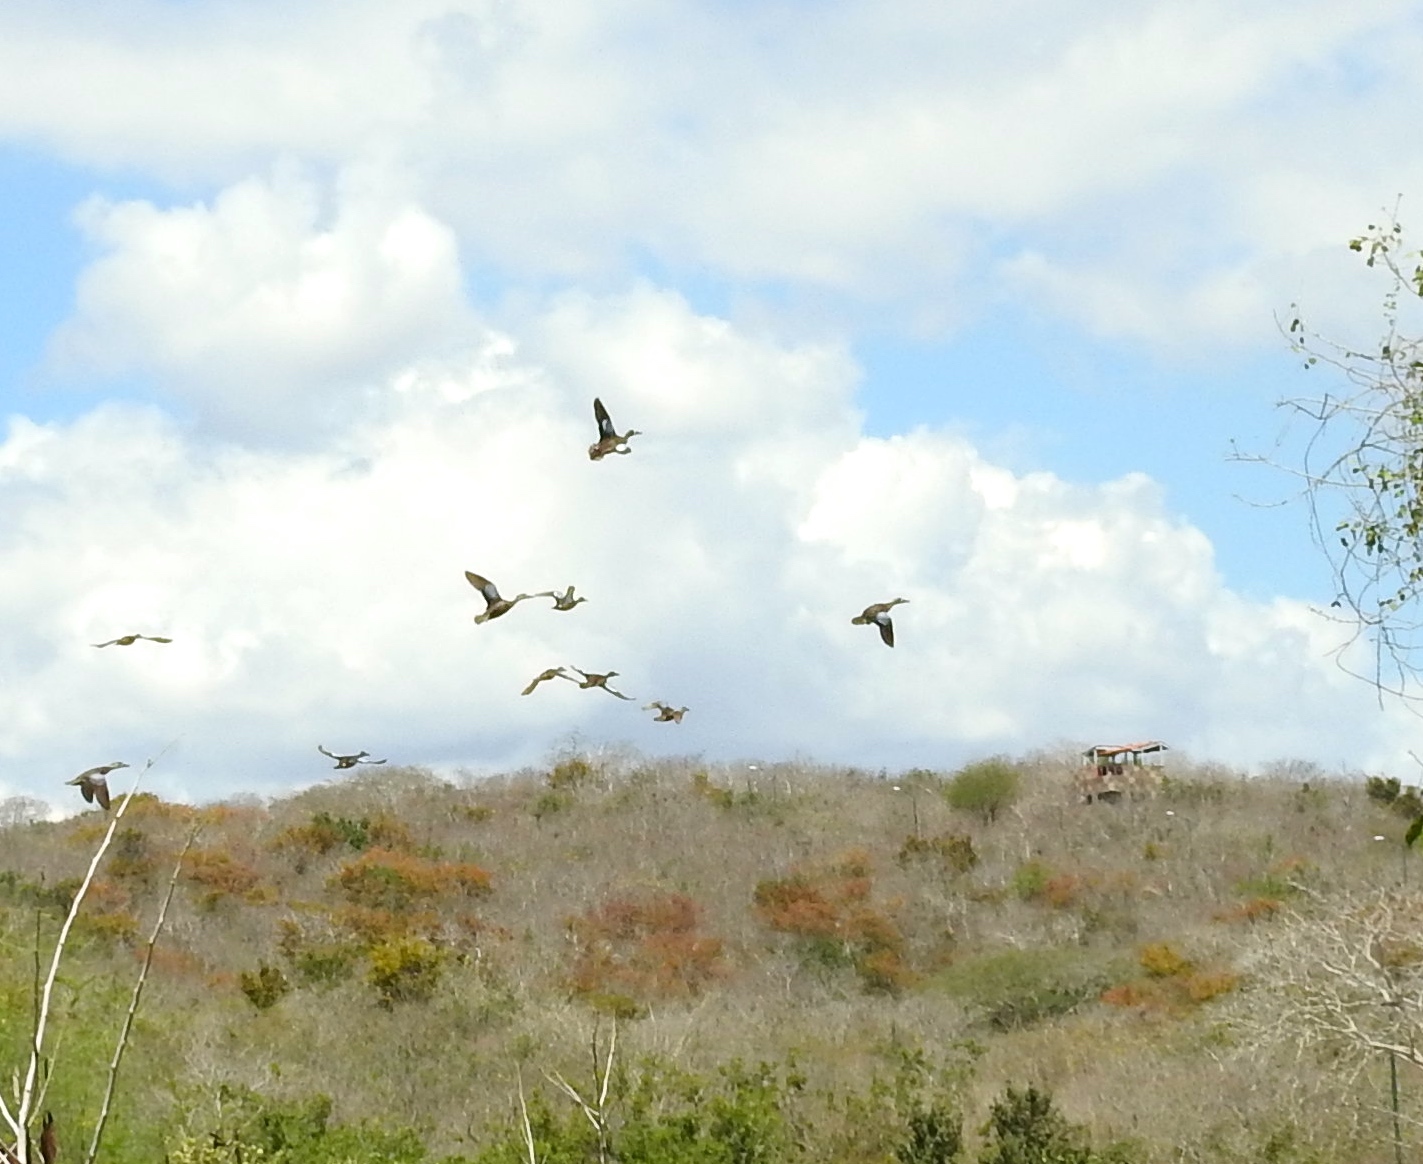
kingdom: Animalia
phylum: Chordata
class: Aves
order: Anseriformes
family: Anatidae
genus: Spatula
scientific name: Spatula discors
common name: Blue-winged teal
